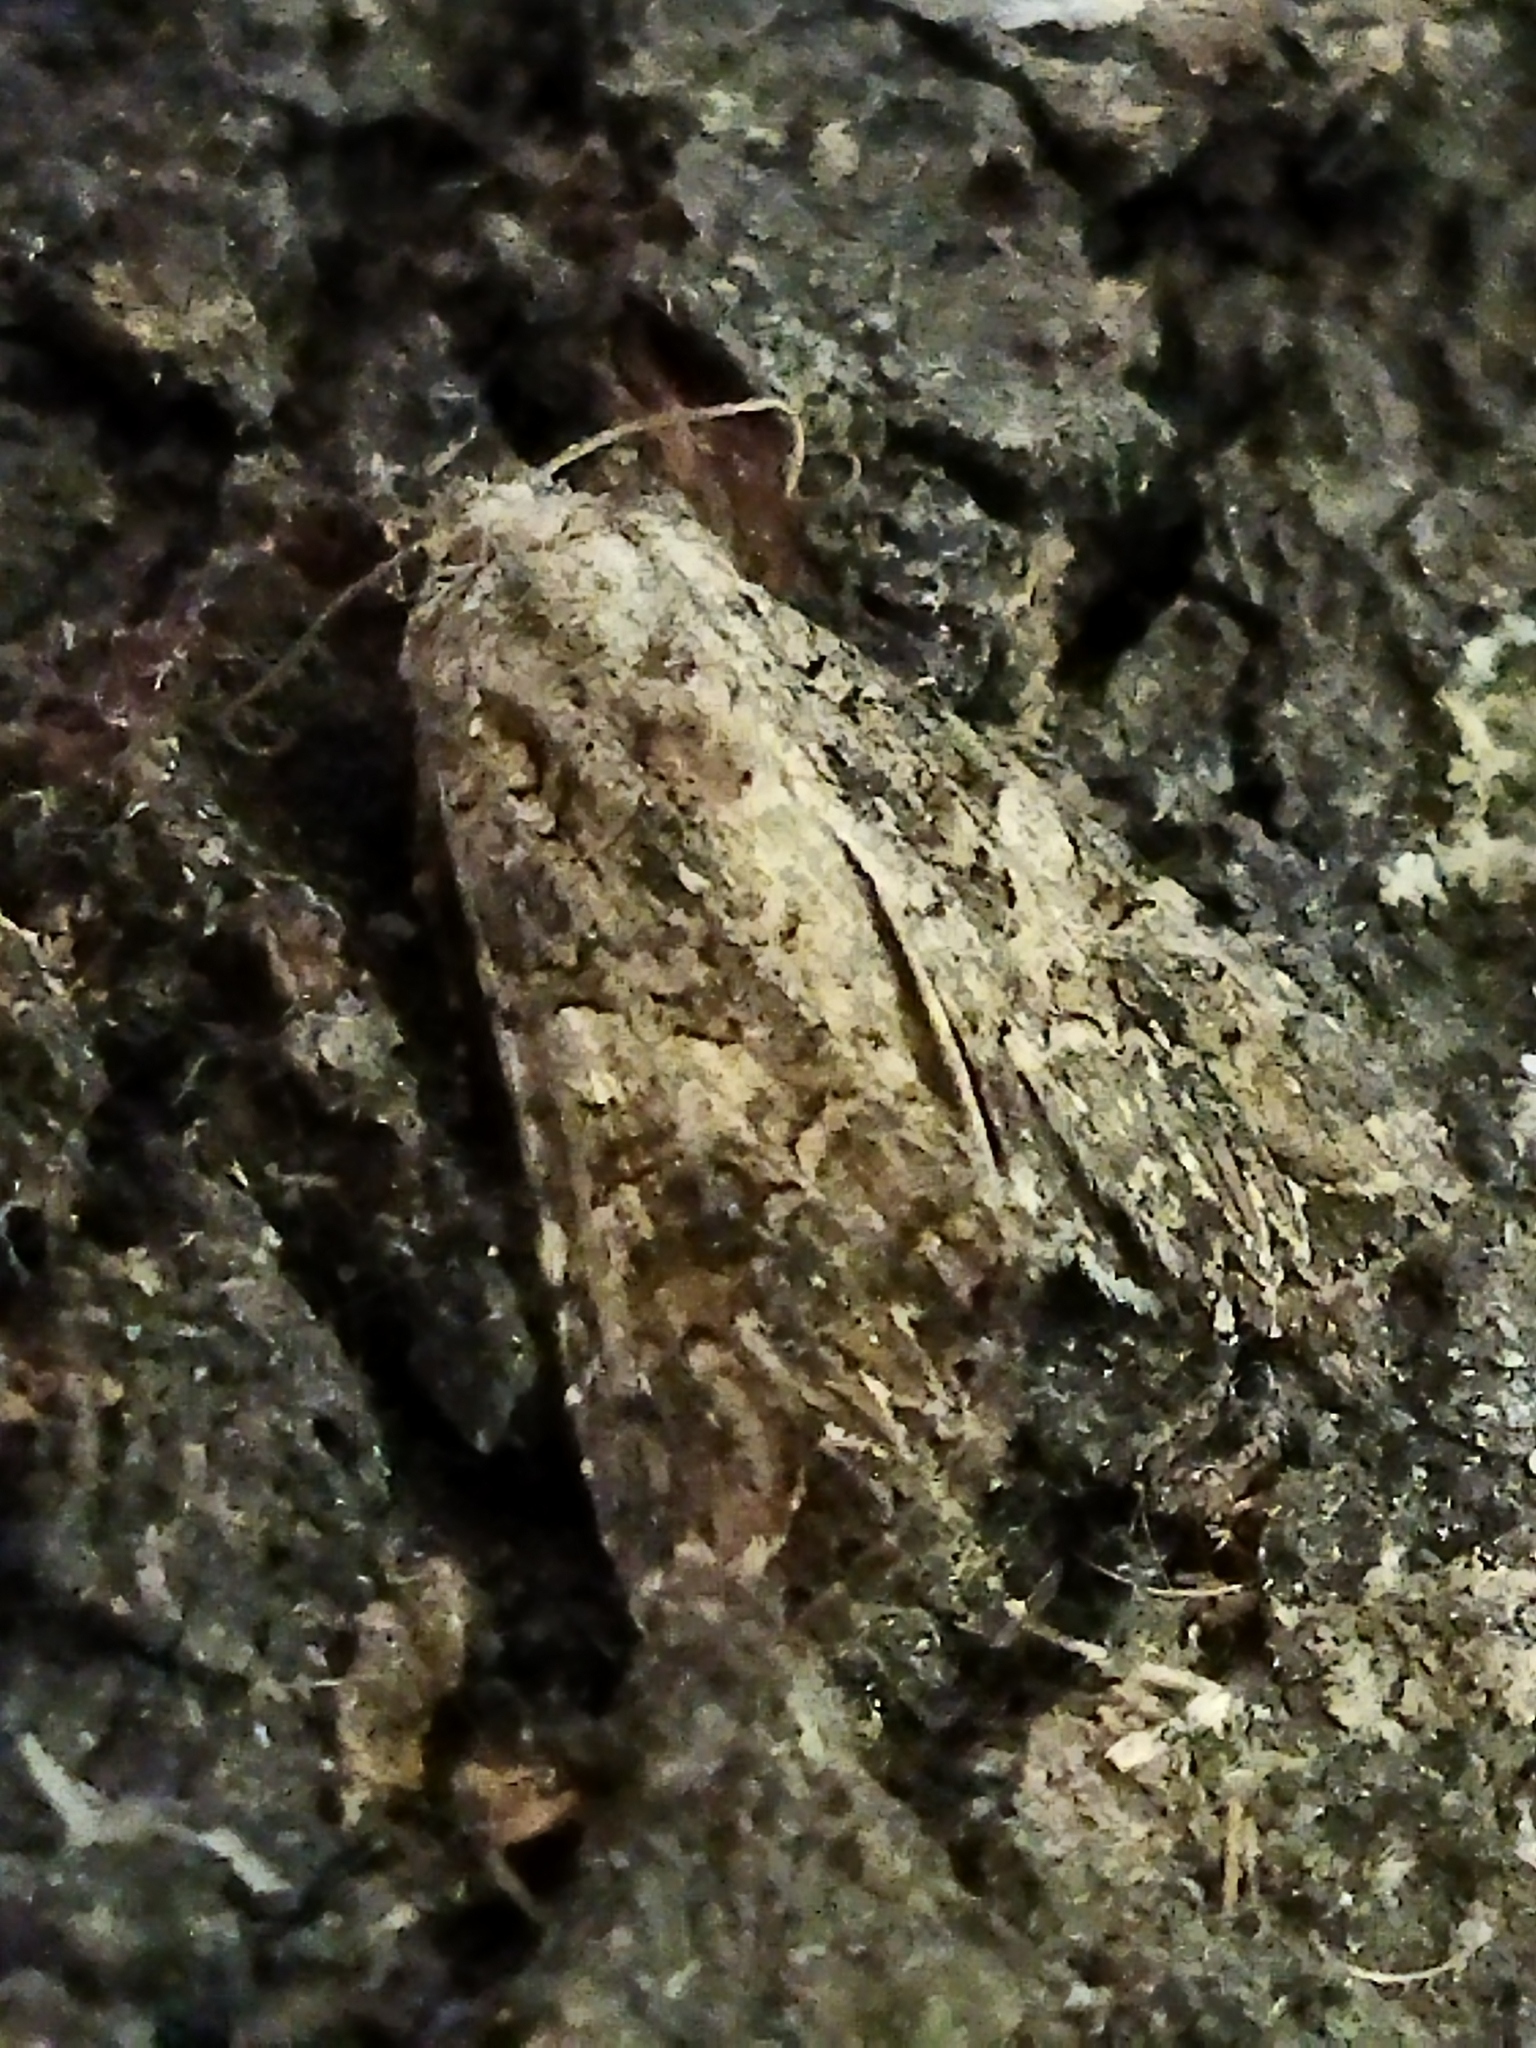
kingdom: Animalia
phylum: Arthropoda
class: Insecta
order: Lepidoptera
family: Noctuidae
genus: Anarta
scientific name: Anarta trifolii
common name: Clover cutworm moth
